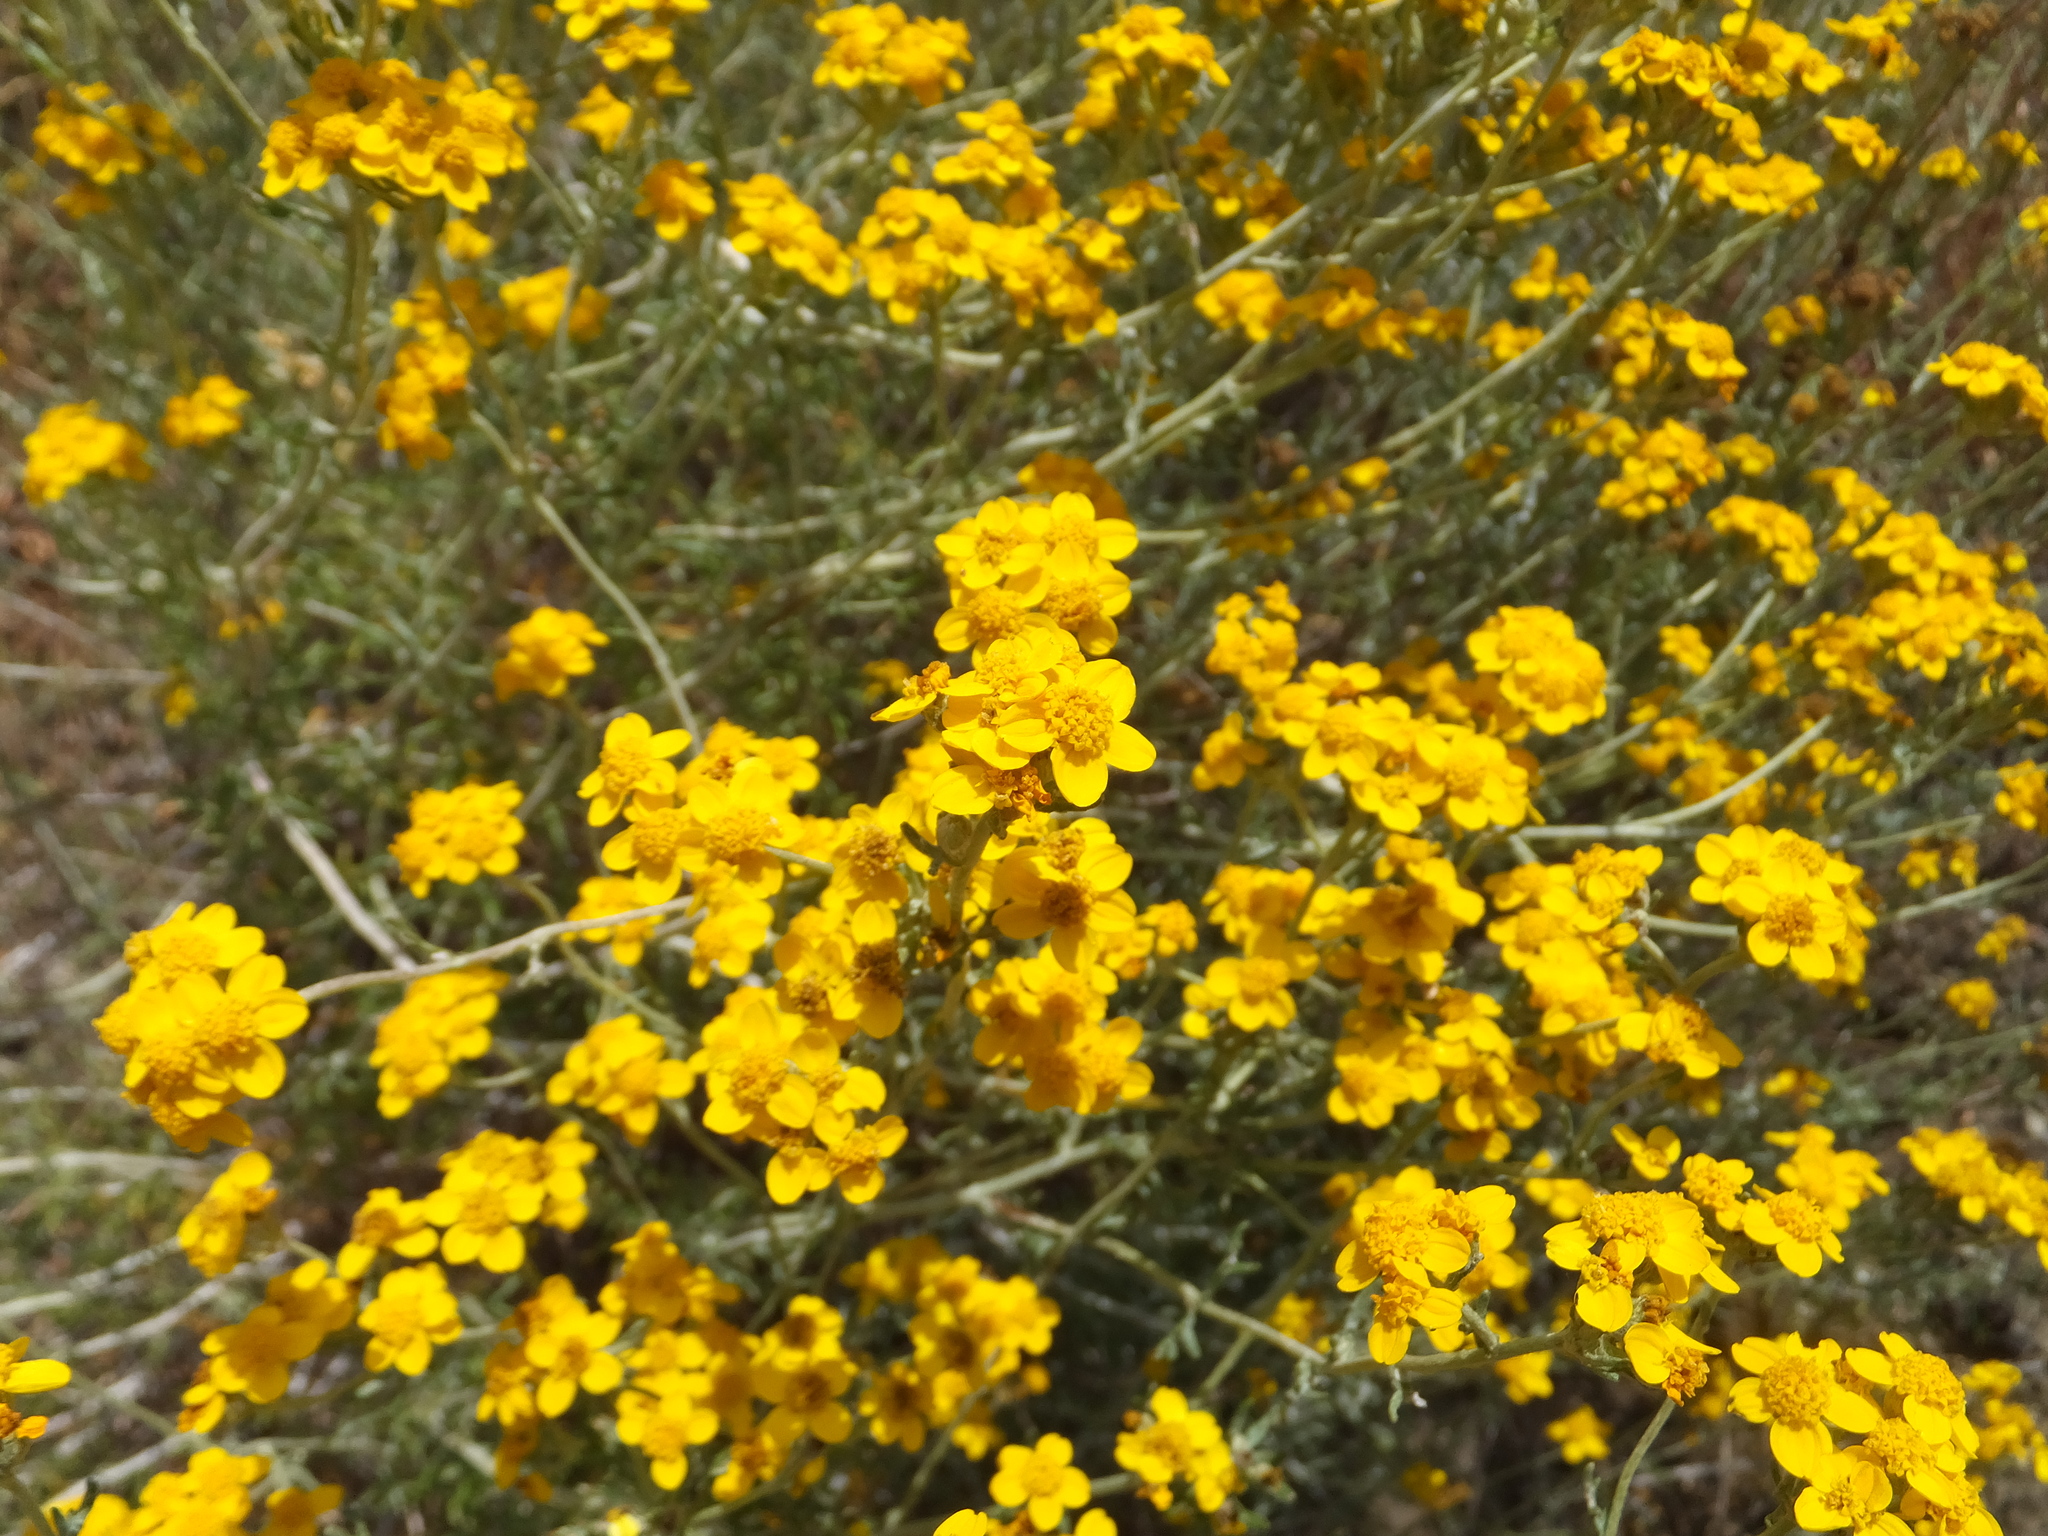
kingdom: Plantae
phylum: Tracheophyta
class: Magnoliopsida
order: Asterales
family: Asteraceae
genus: Eriophyllum
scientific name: Eriophyllum confertiflorum
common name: Golden-yarrow
